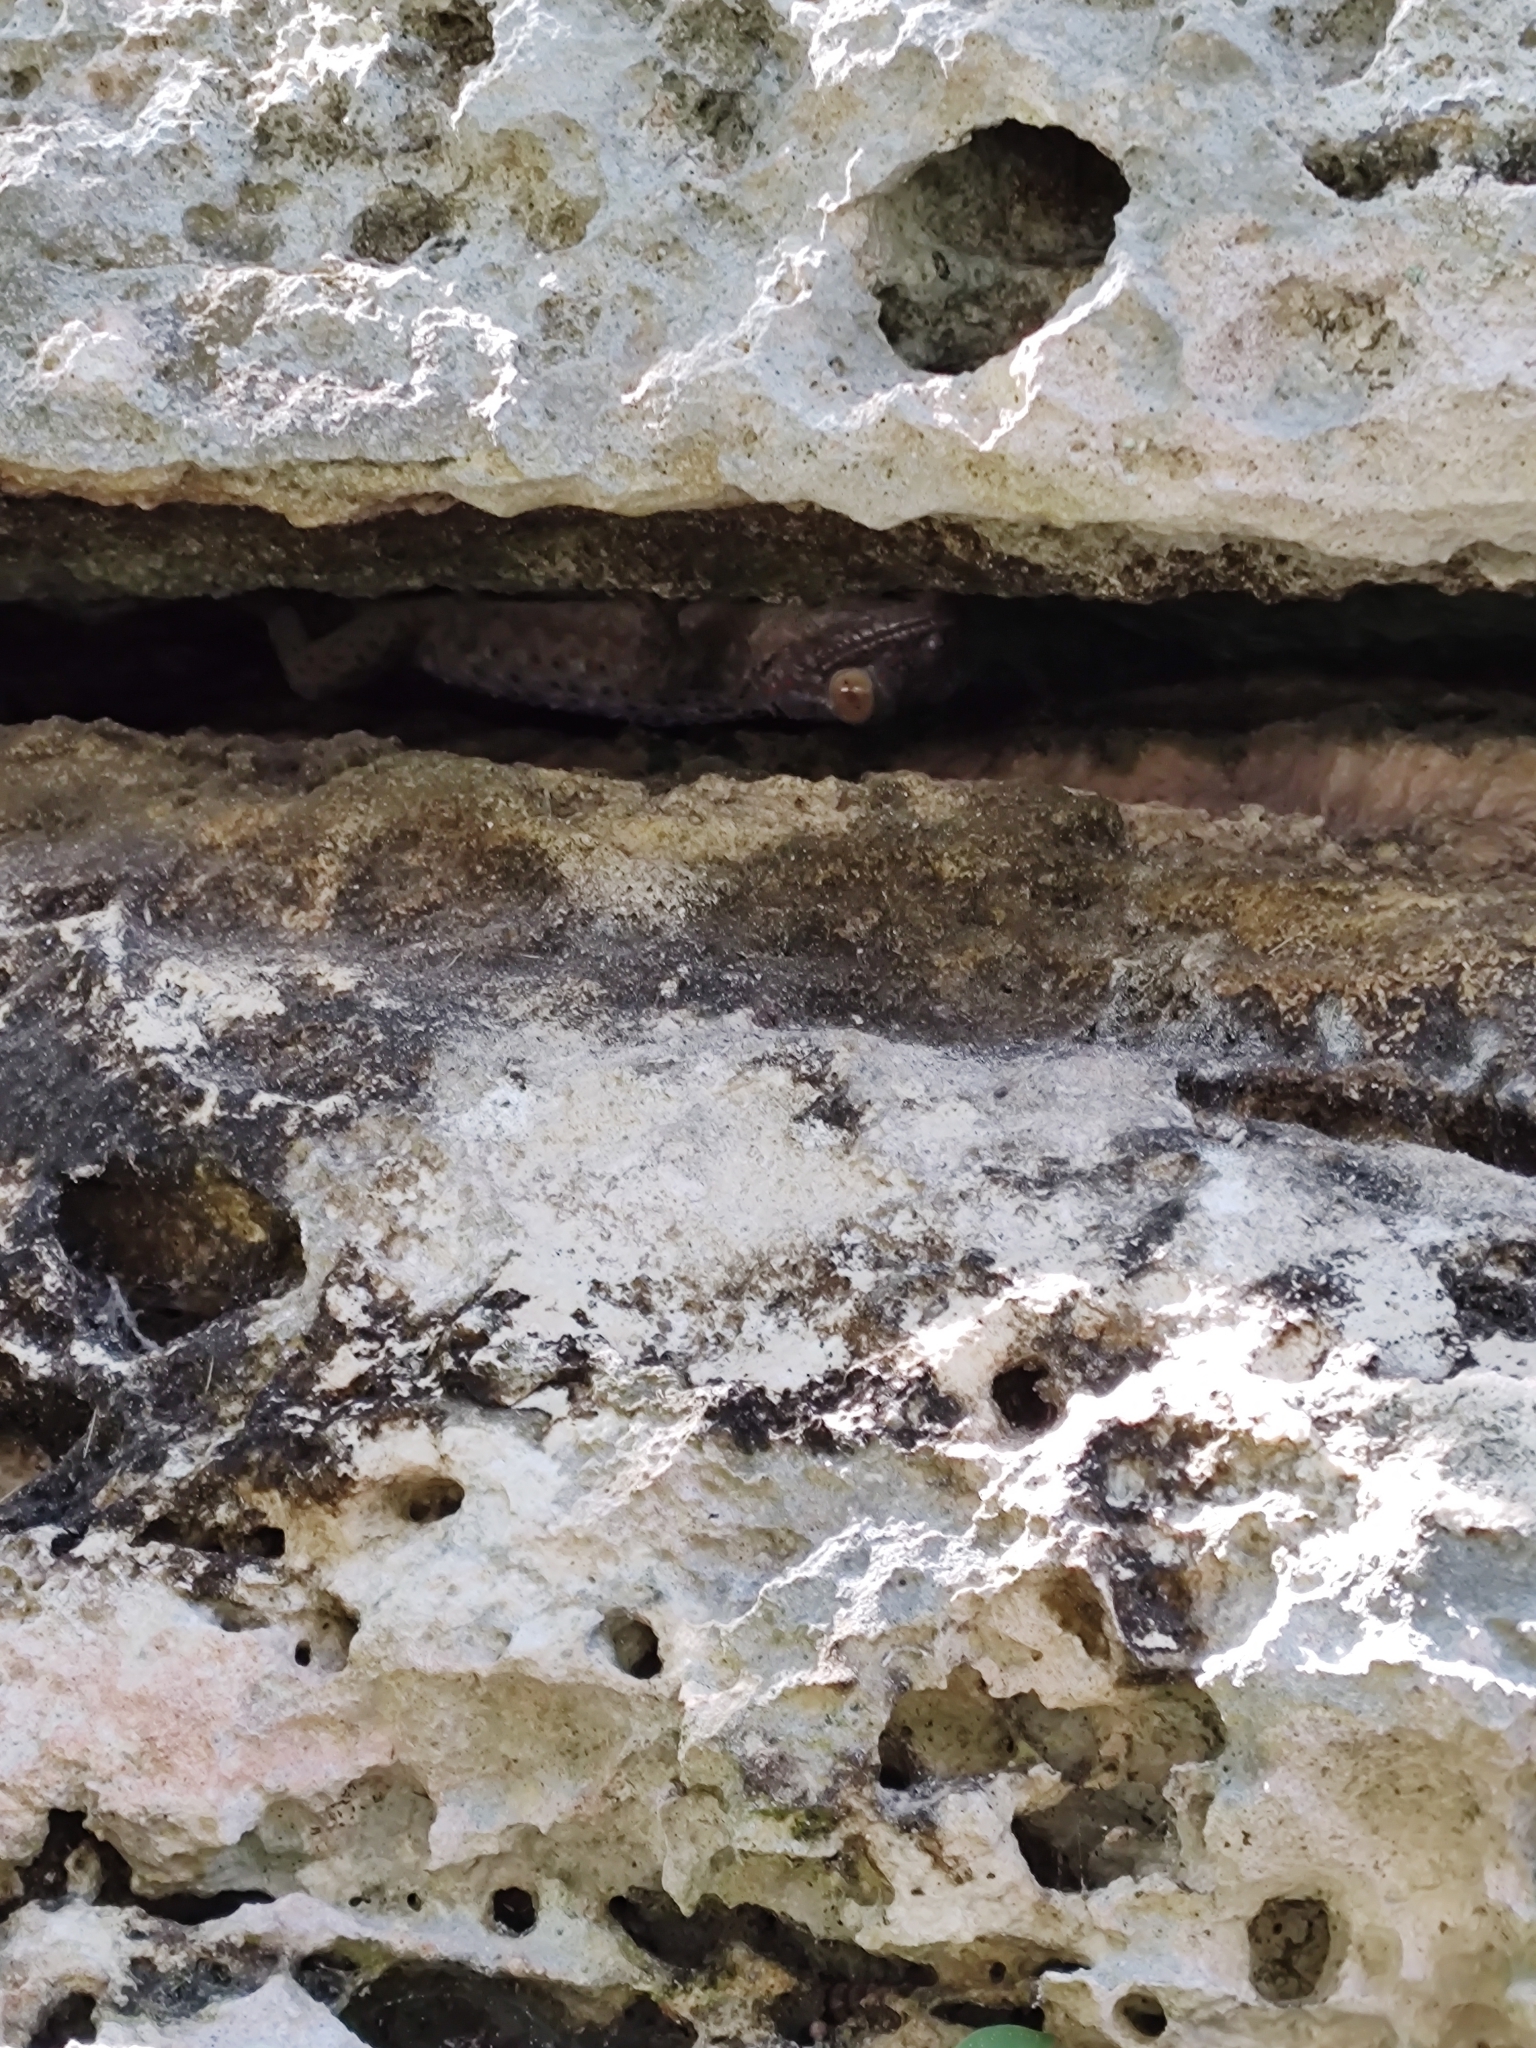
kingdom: Animalia
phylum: Chordata
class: Squamata
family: Gekkonidae
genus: Gekko
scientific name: Gekko gecko
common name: Tokay gecko
